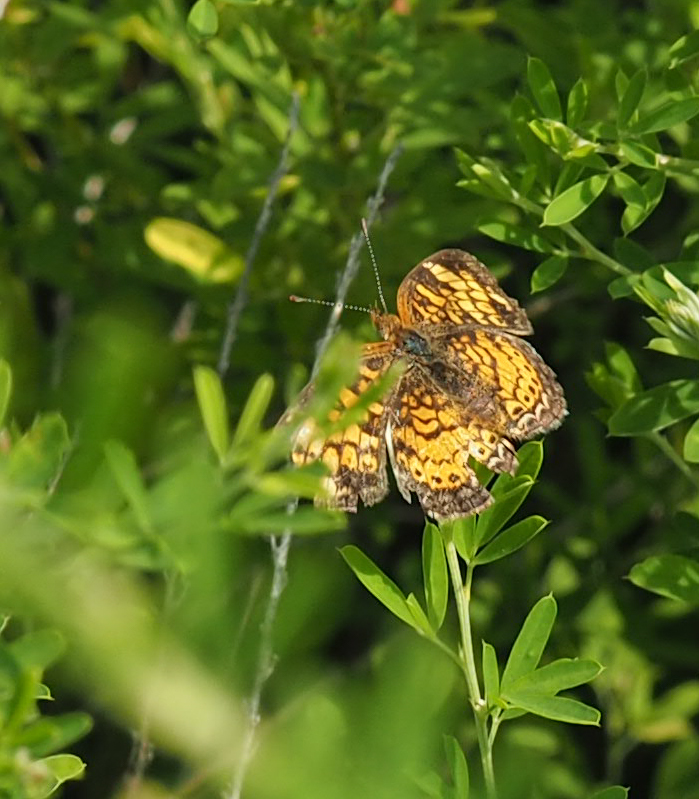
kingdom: Animalia
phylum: Arthropoda
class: Insecta
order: Lepidoptera
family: Nymphalidae
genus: Phyciodes
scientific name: Phyciodes tharos
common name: Pearl crescent
